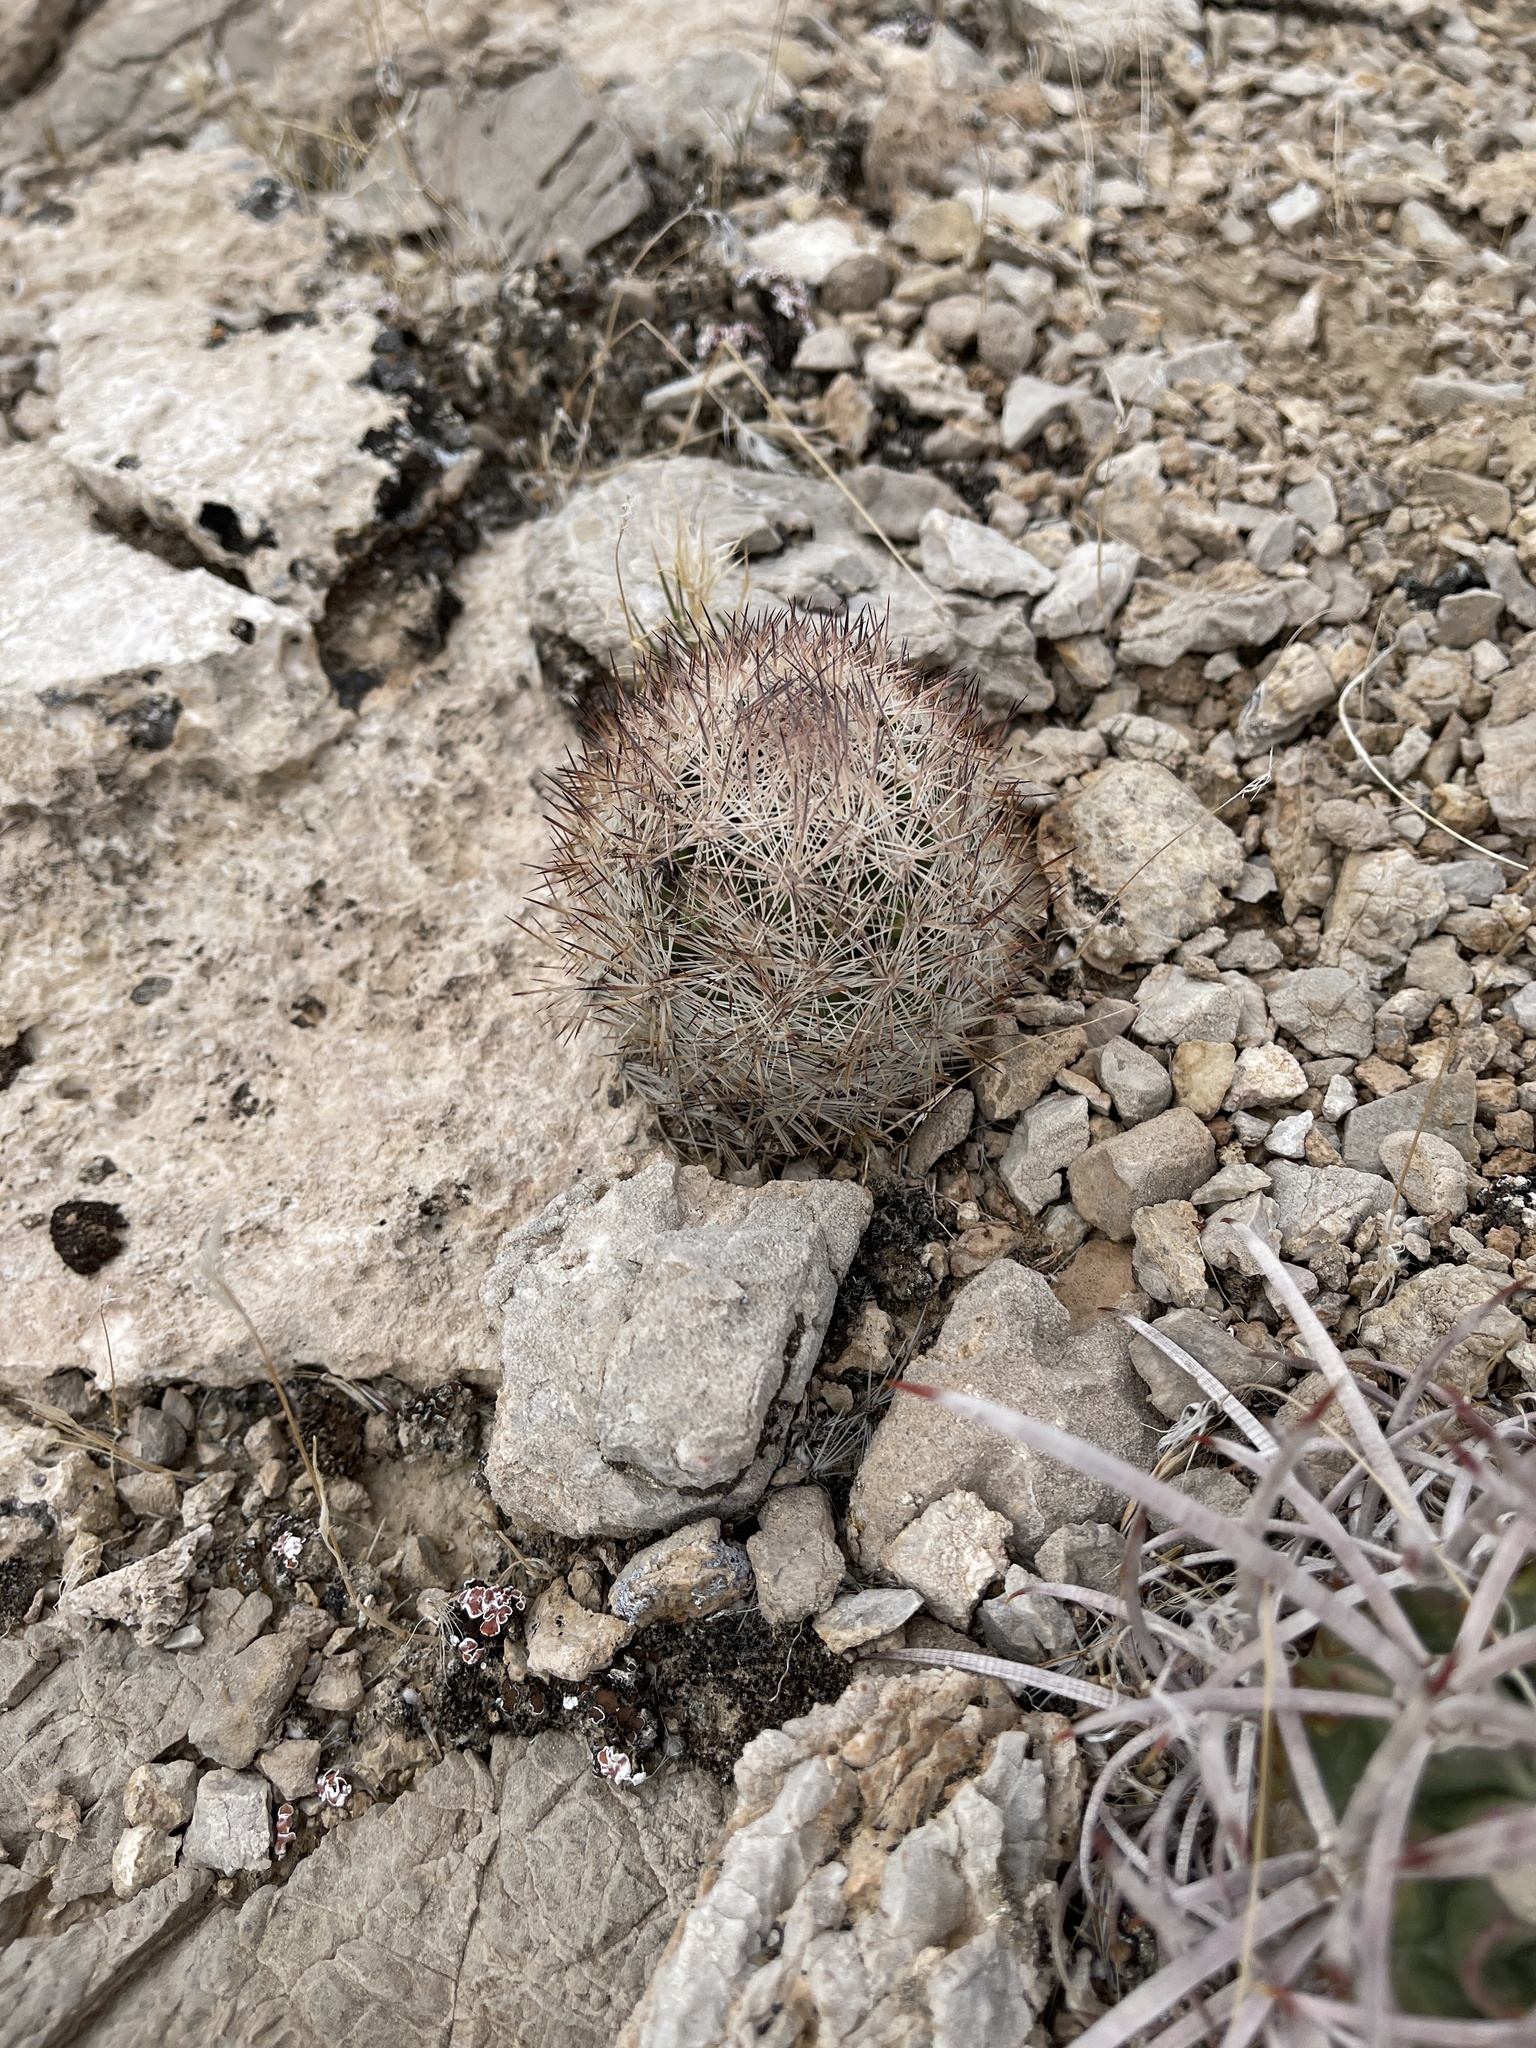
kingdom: Plantae
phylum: Tracheophyta
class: Magnoliopsida
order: Caryophyllales
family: Cactaceae
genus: Pelecyphora
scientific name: Pelecyphora dasyacantha
